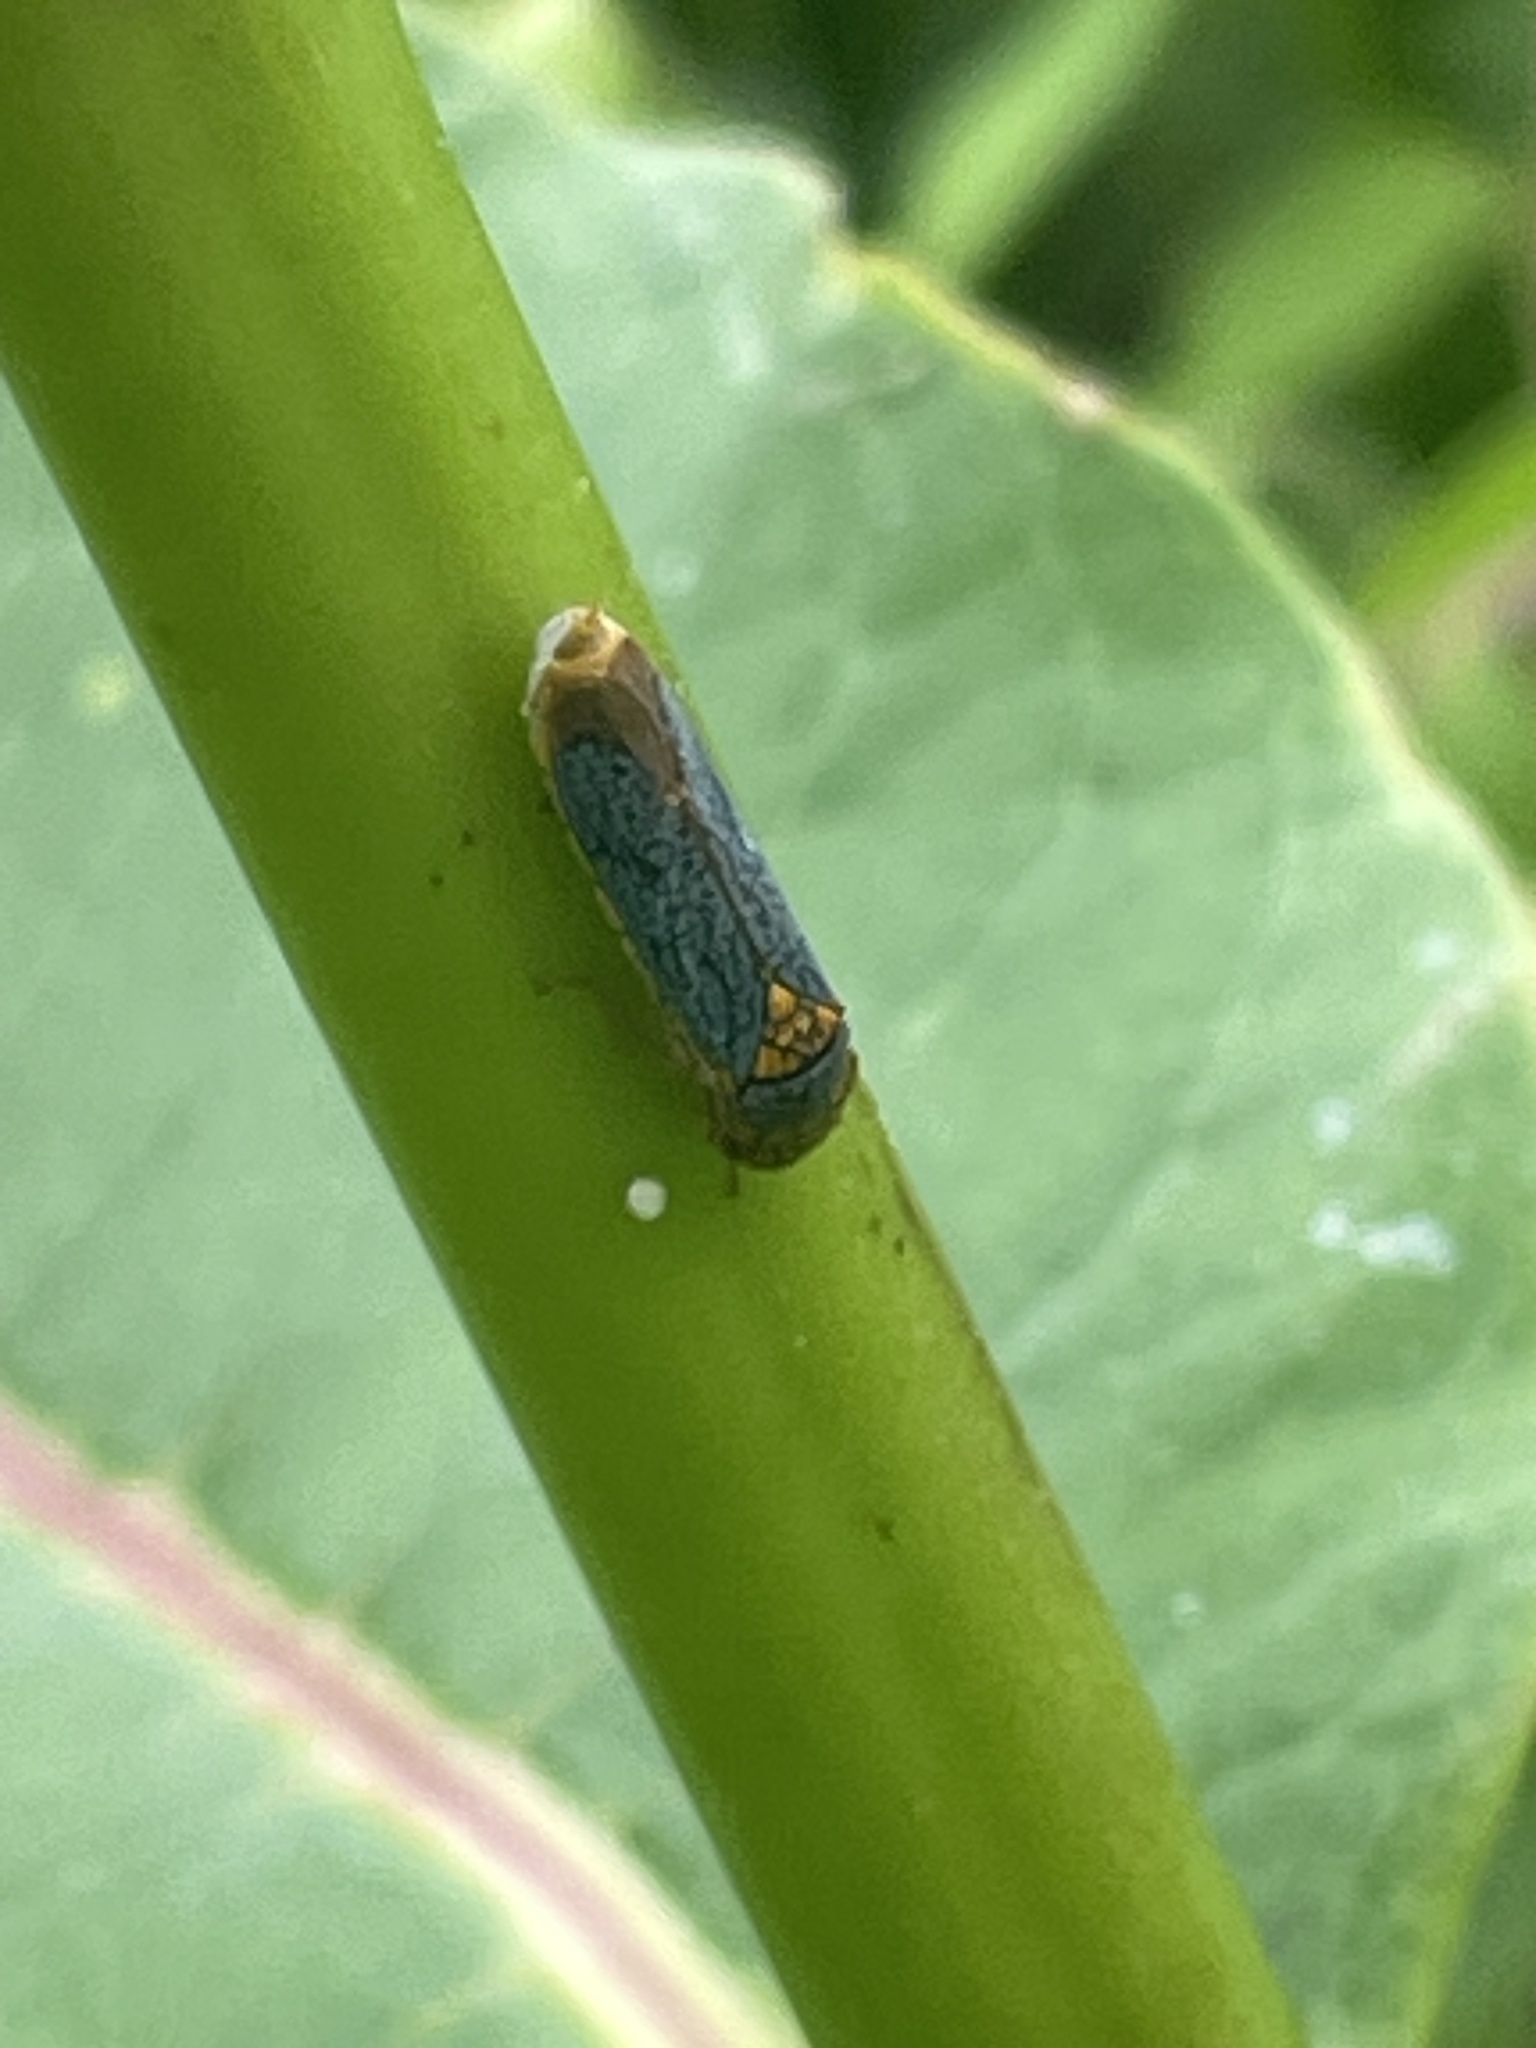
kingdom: Animalia
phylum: Arthropoda
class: Insecta
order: Hemiptera
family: Cicadellidae
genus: Oncometopia
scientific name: Oncometopia orbona
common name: Broad-headed sharpshooter
